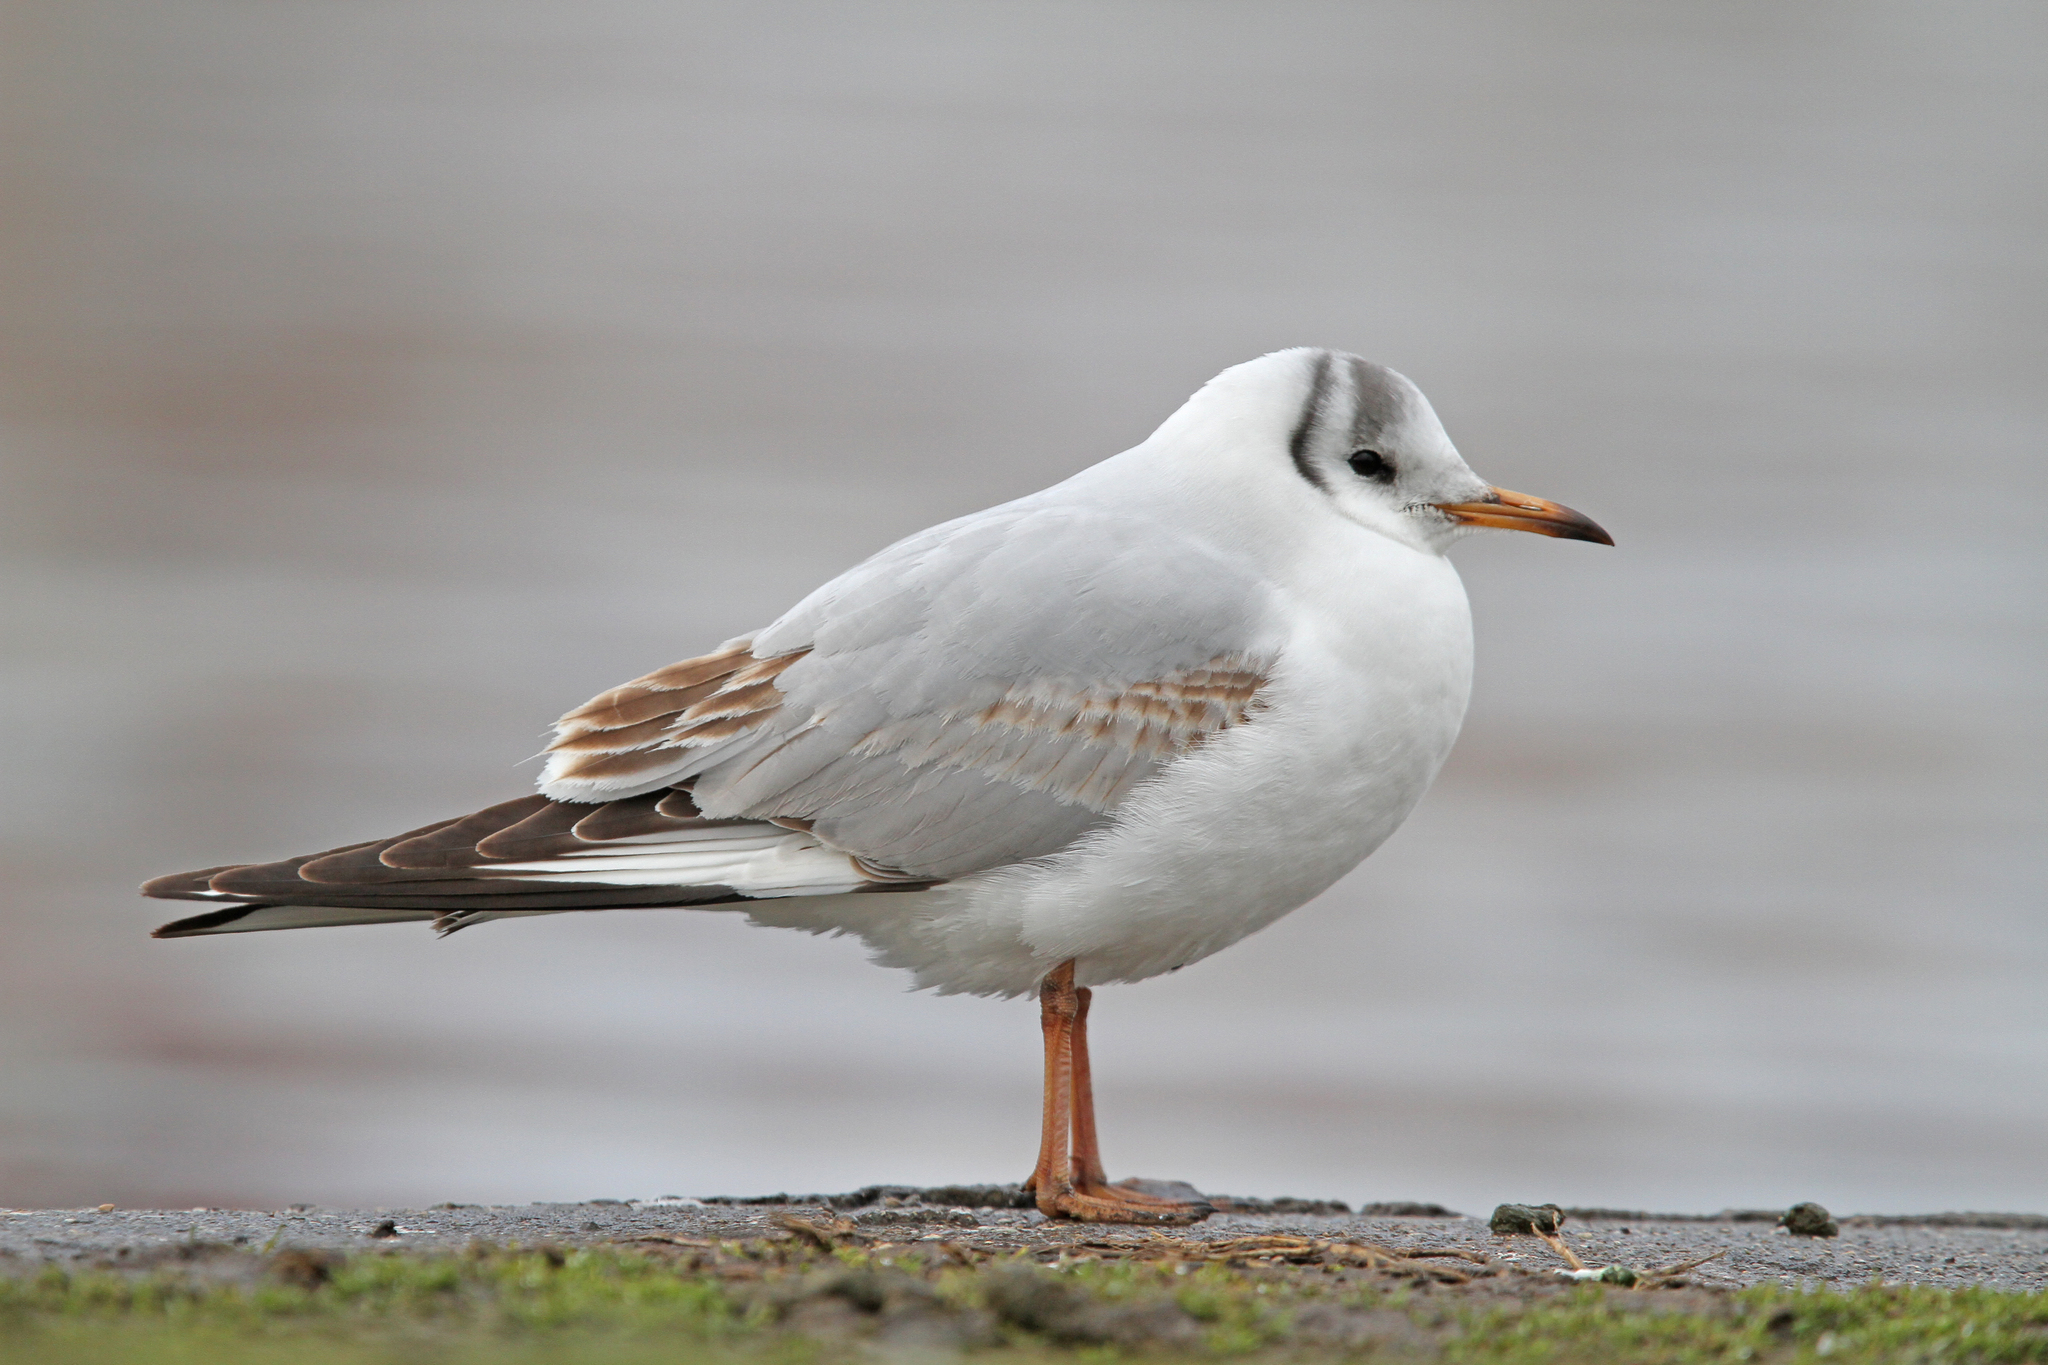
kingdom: Animalia
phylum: Chordata
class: Aves
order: Charadriiformes
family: Laridae
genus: Chroicocephalus
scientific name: Chroicocephalus ridibundus
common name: Black-headed gull
